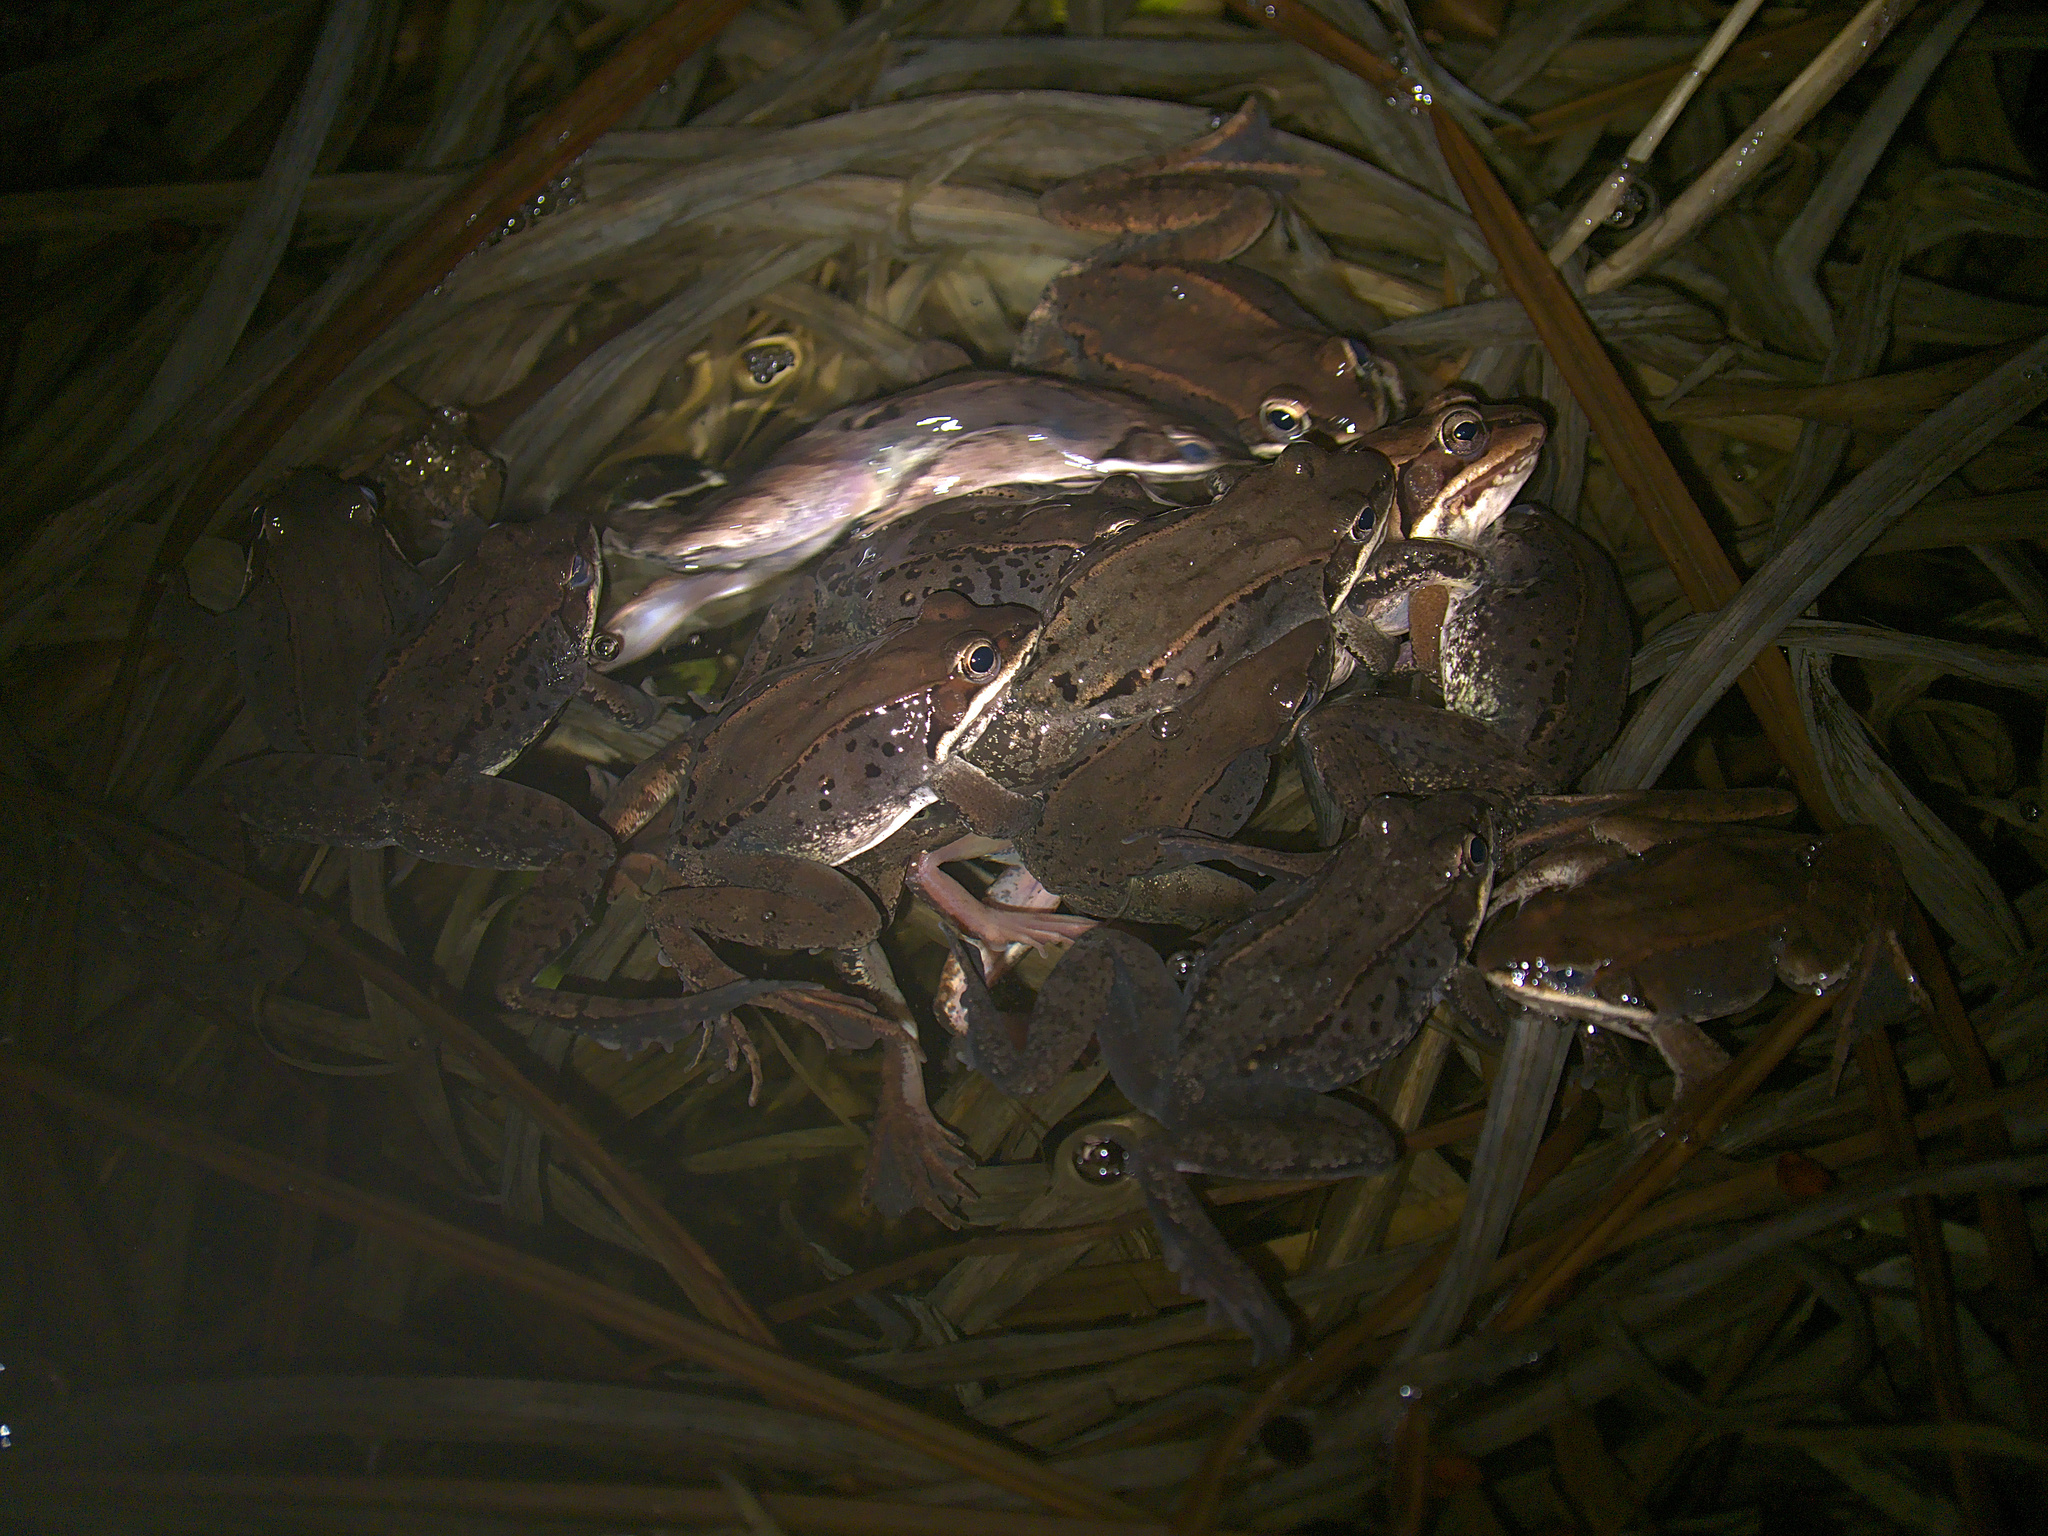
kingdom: Animalia
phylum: Chordata
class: Amphibia
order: Anura
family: Ranidae
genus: Lithobates
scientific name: Lithobates sylvaticus
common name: Wood frog
